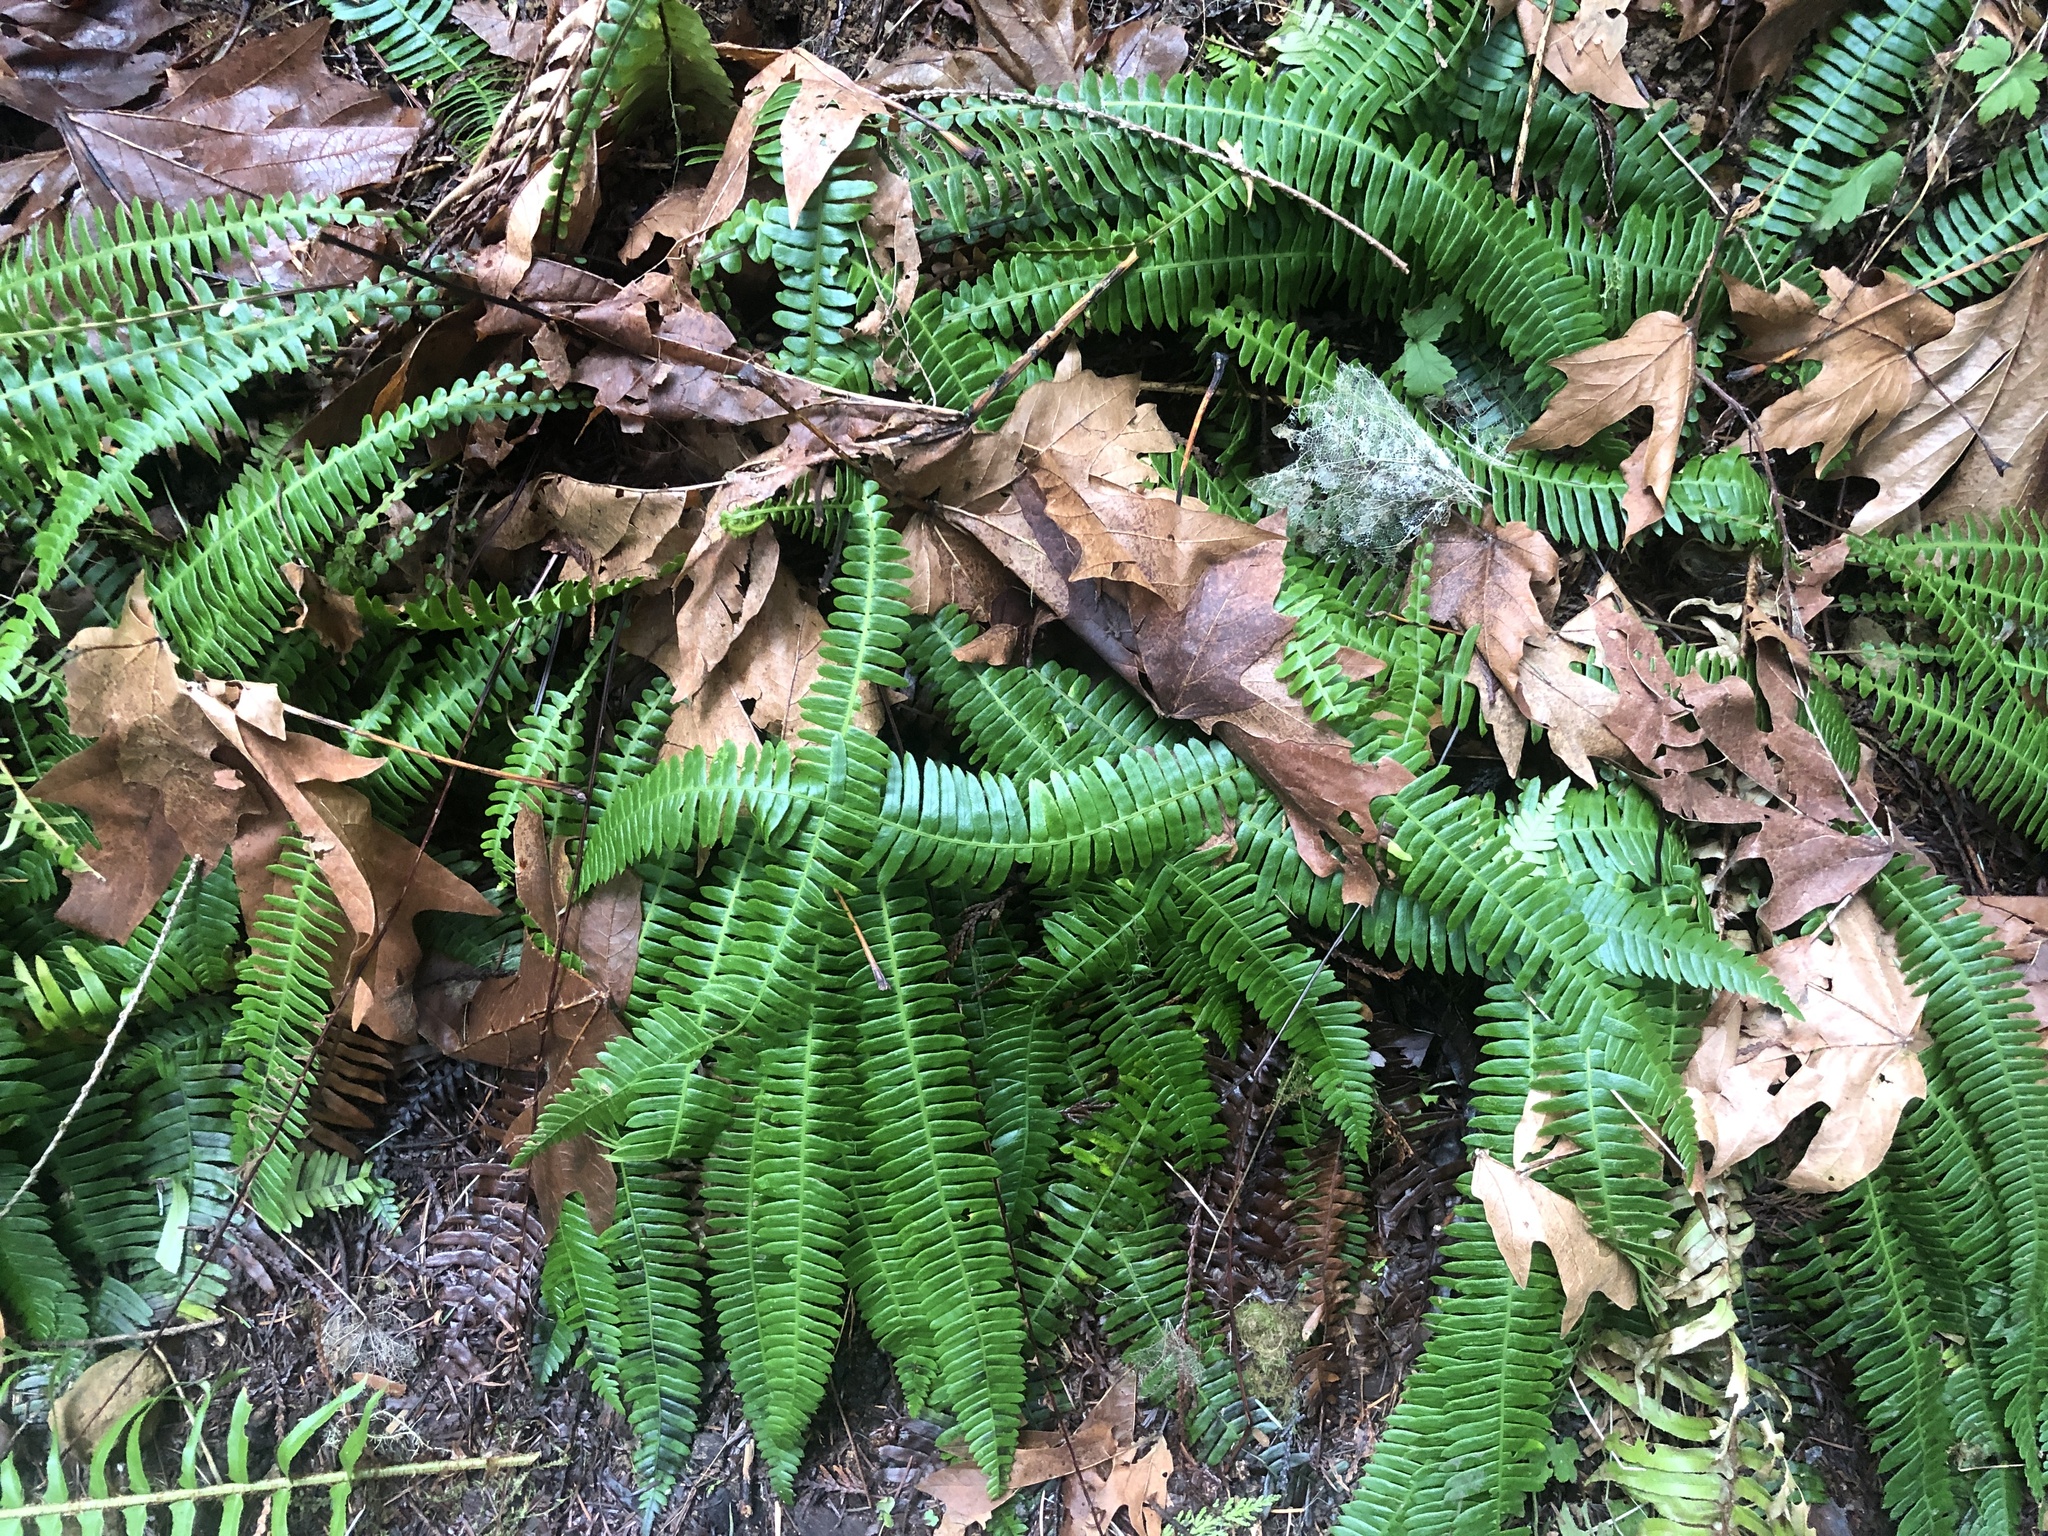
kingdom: Plantae
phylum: Tracheophyta
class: Polypodiopsida
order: Polypodiales
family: Blechnaceae
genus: Struthiopteris
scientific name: Struthiopteris spicant
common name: Deer fern
